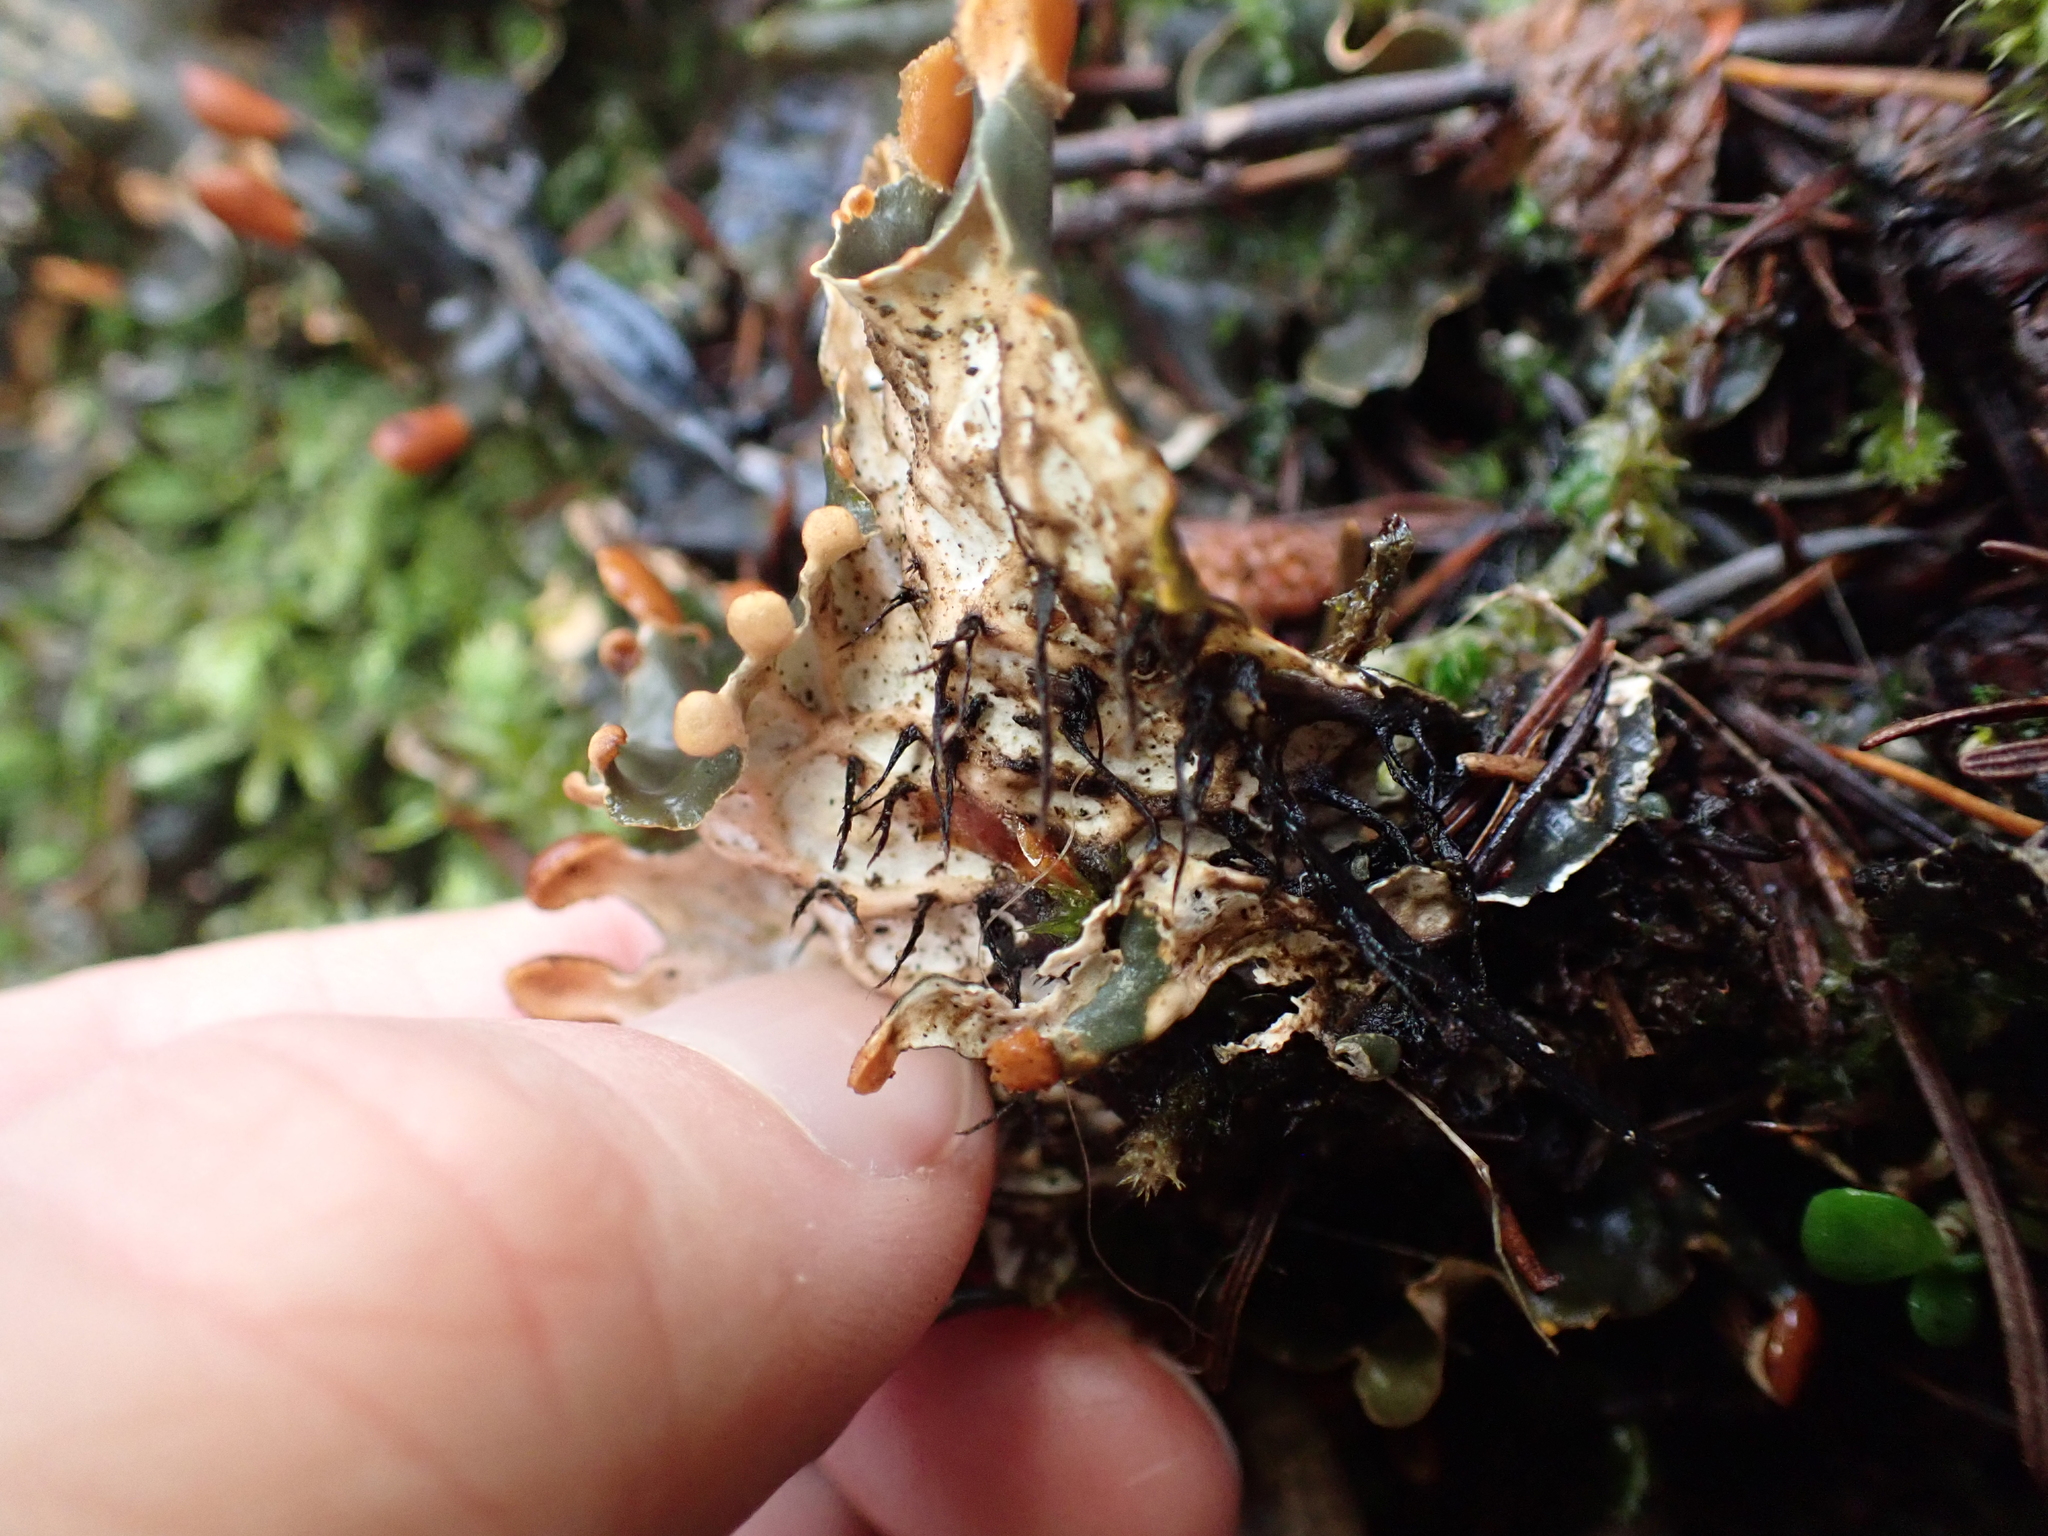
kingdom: Fungi
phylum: Ascomycota
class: Lecanoromycetes
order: Peltigerales
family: Peltigeraceae
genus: Peltigera
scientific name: Peltigera membranacea
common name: Membranous pelt lichen
